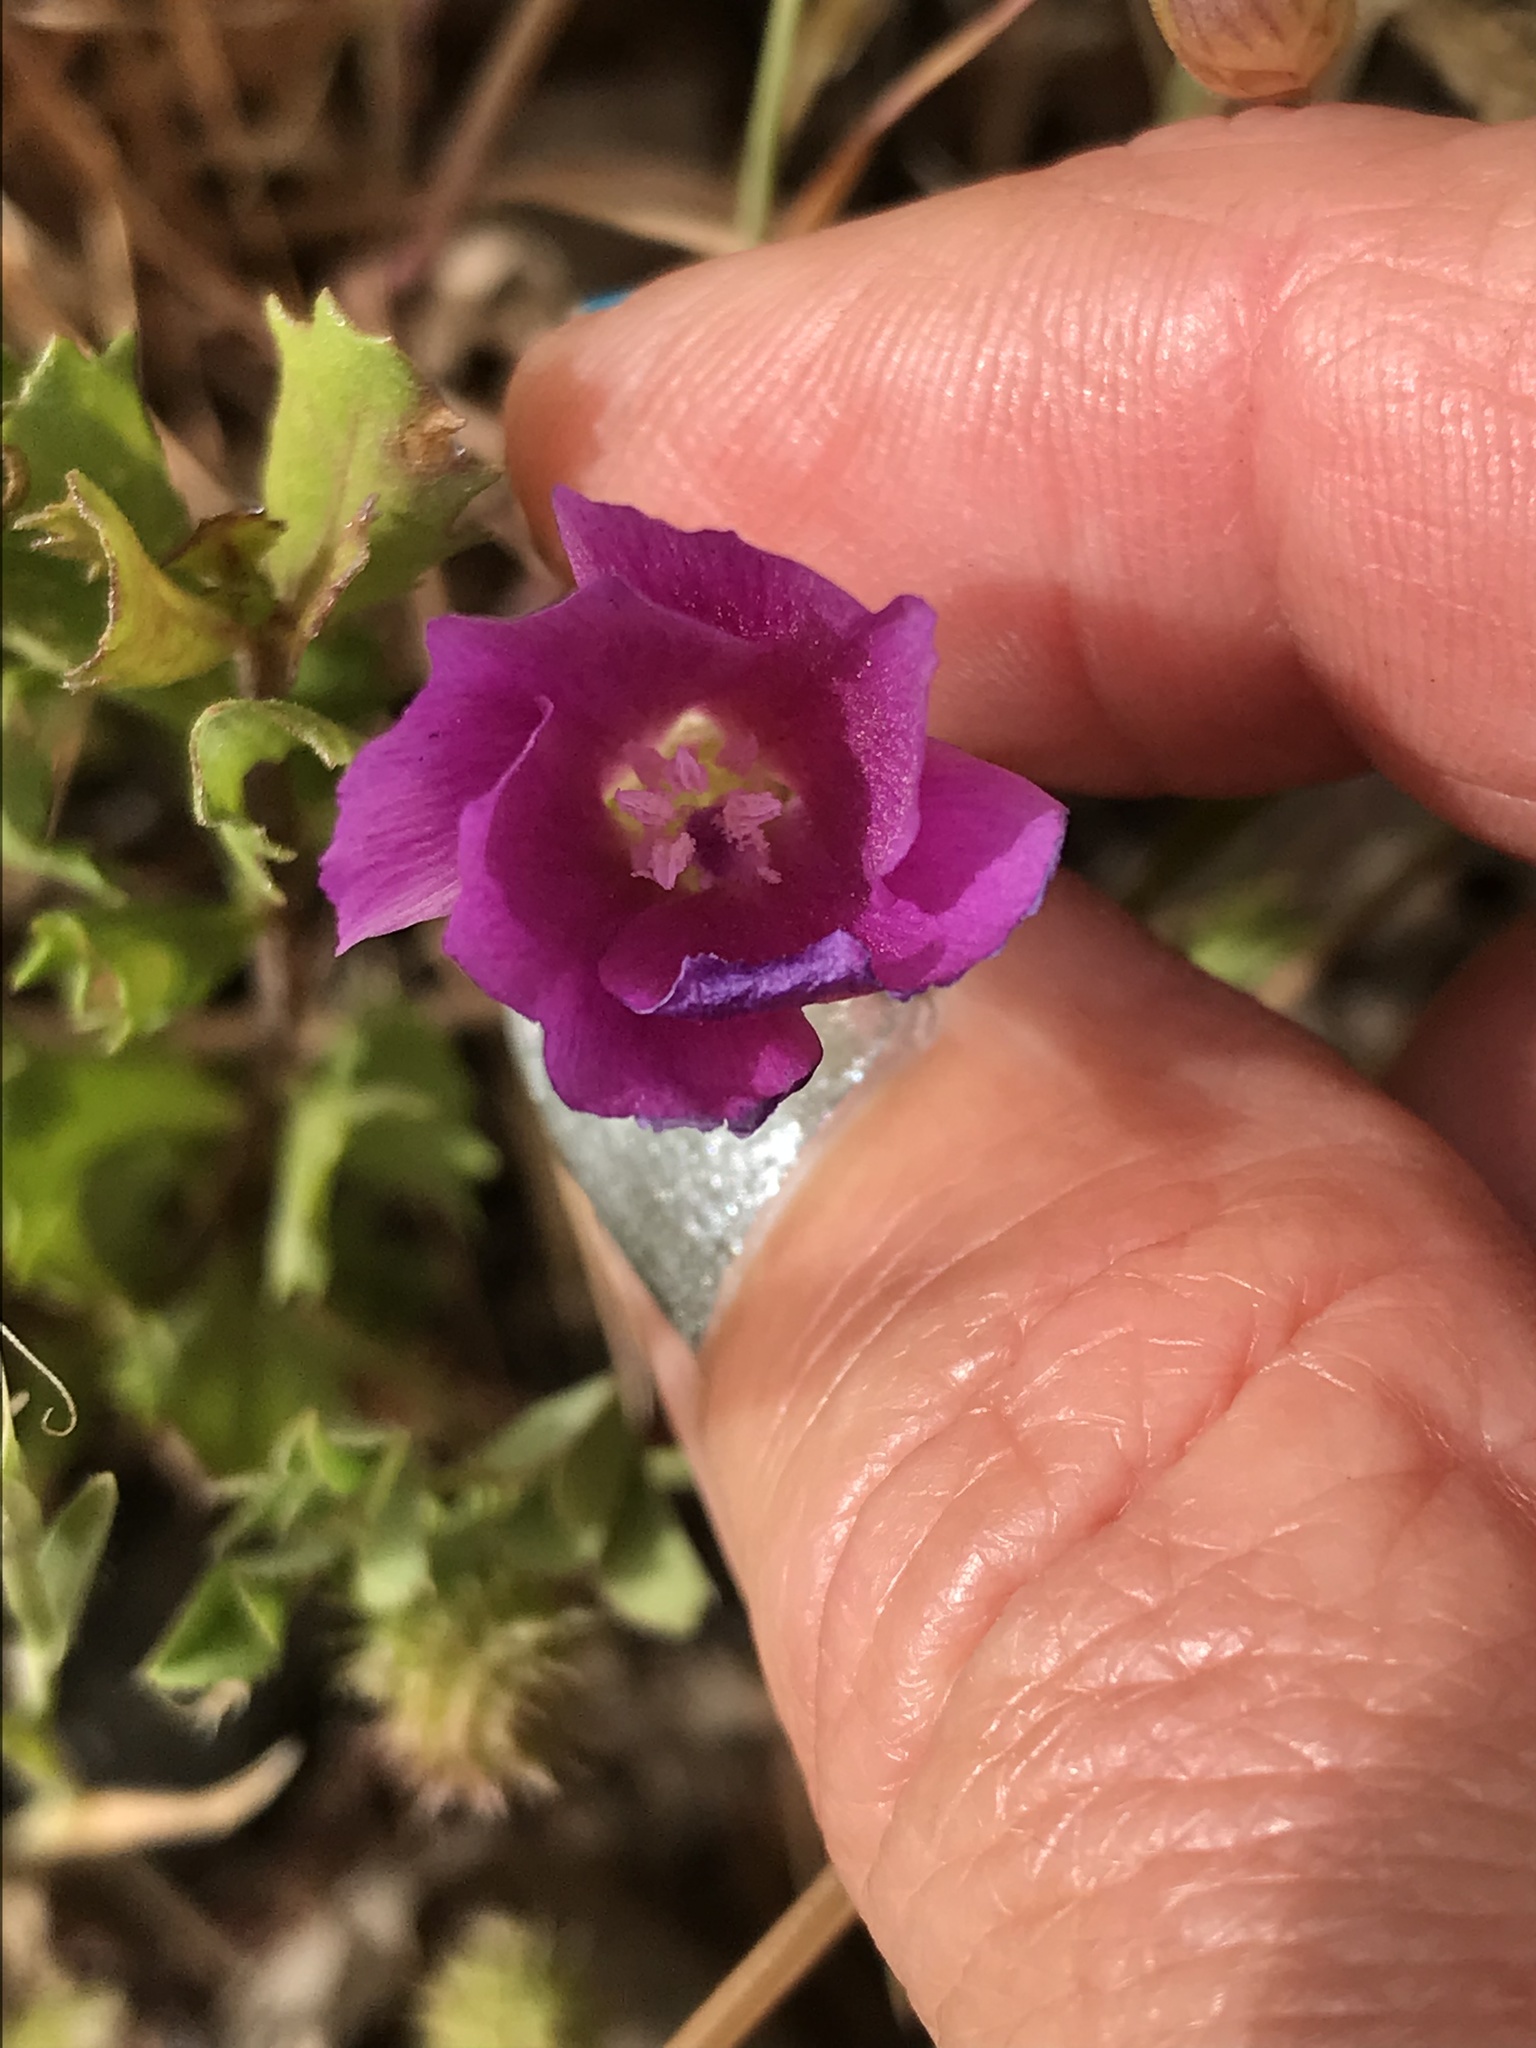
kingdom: Plantae
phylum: Tracheophyta
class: Magnoliopsida
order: Myrtales
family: Onagraceae
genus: Clarkia
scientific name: Clarkia purpurea
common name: Purple clarkia
